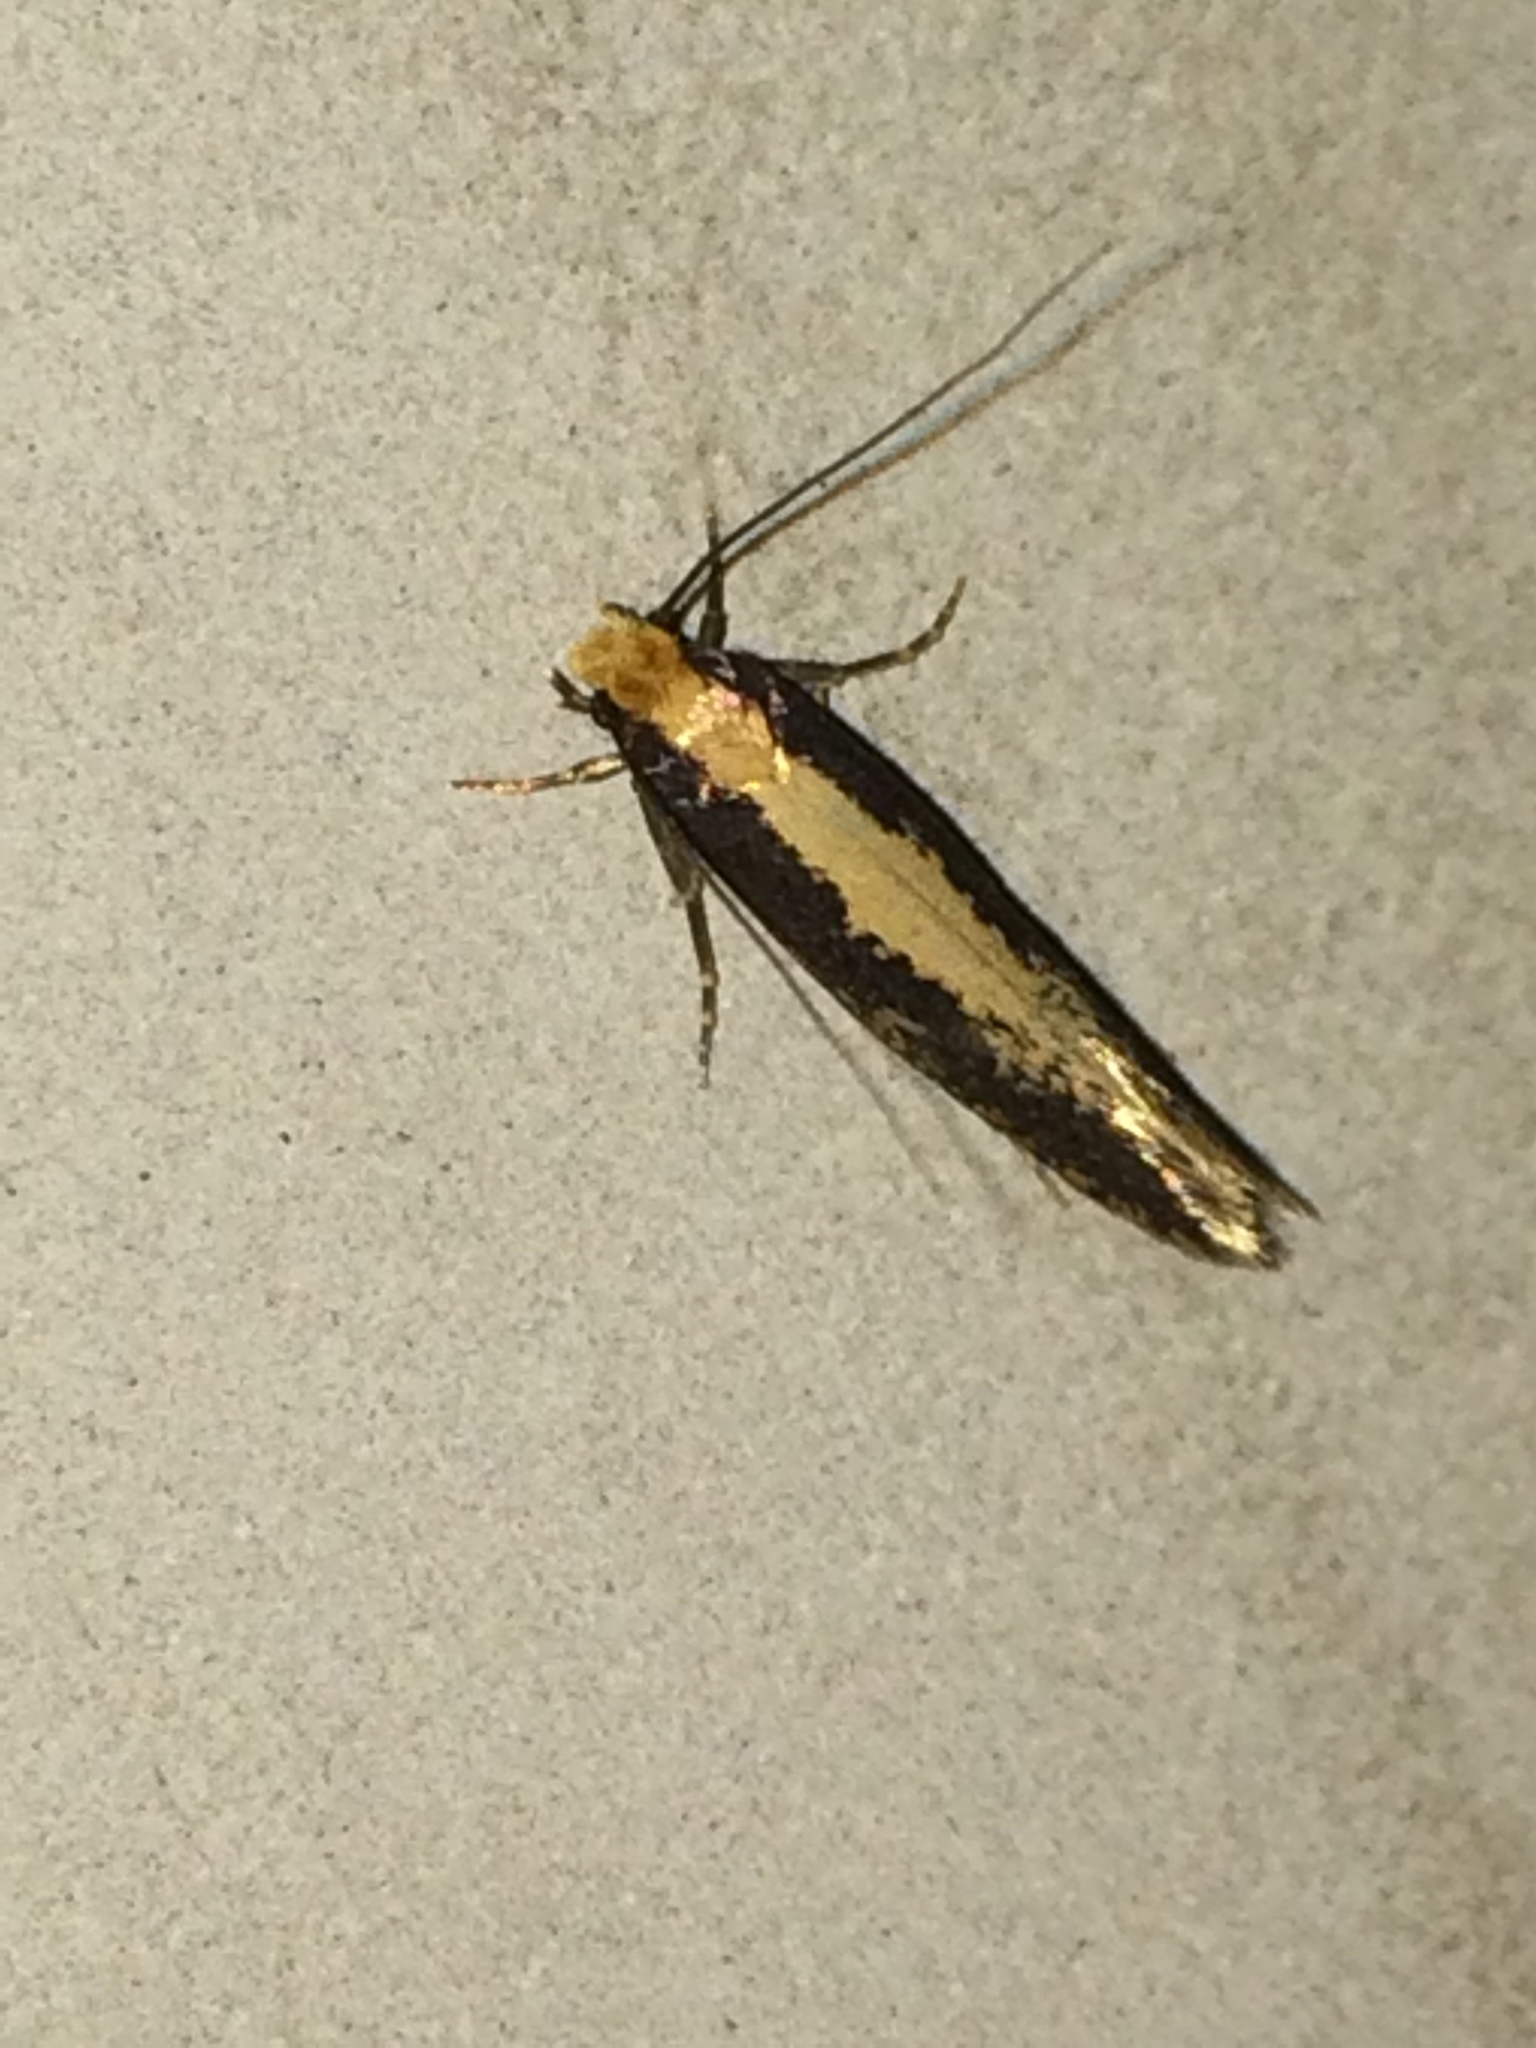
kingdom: Animalia
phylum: Arthropoda
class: Insecta
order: Lepidoptera
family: Plutellidae
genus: Plutella
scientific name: Plutella xylostella
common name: Diamond-back moth
